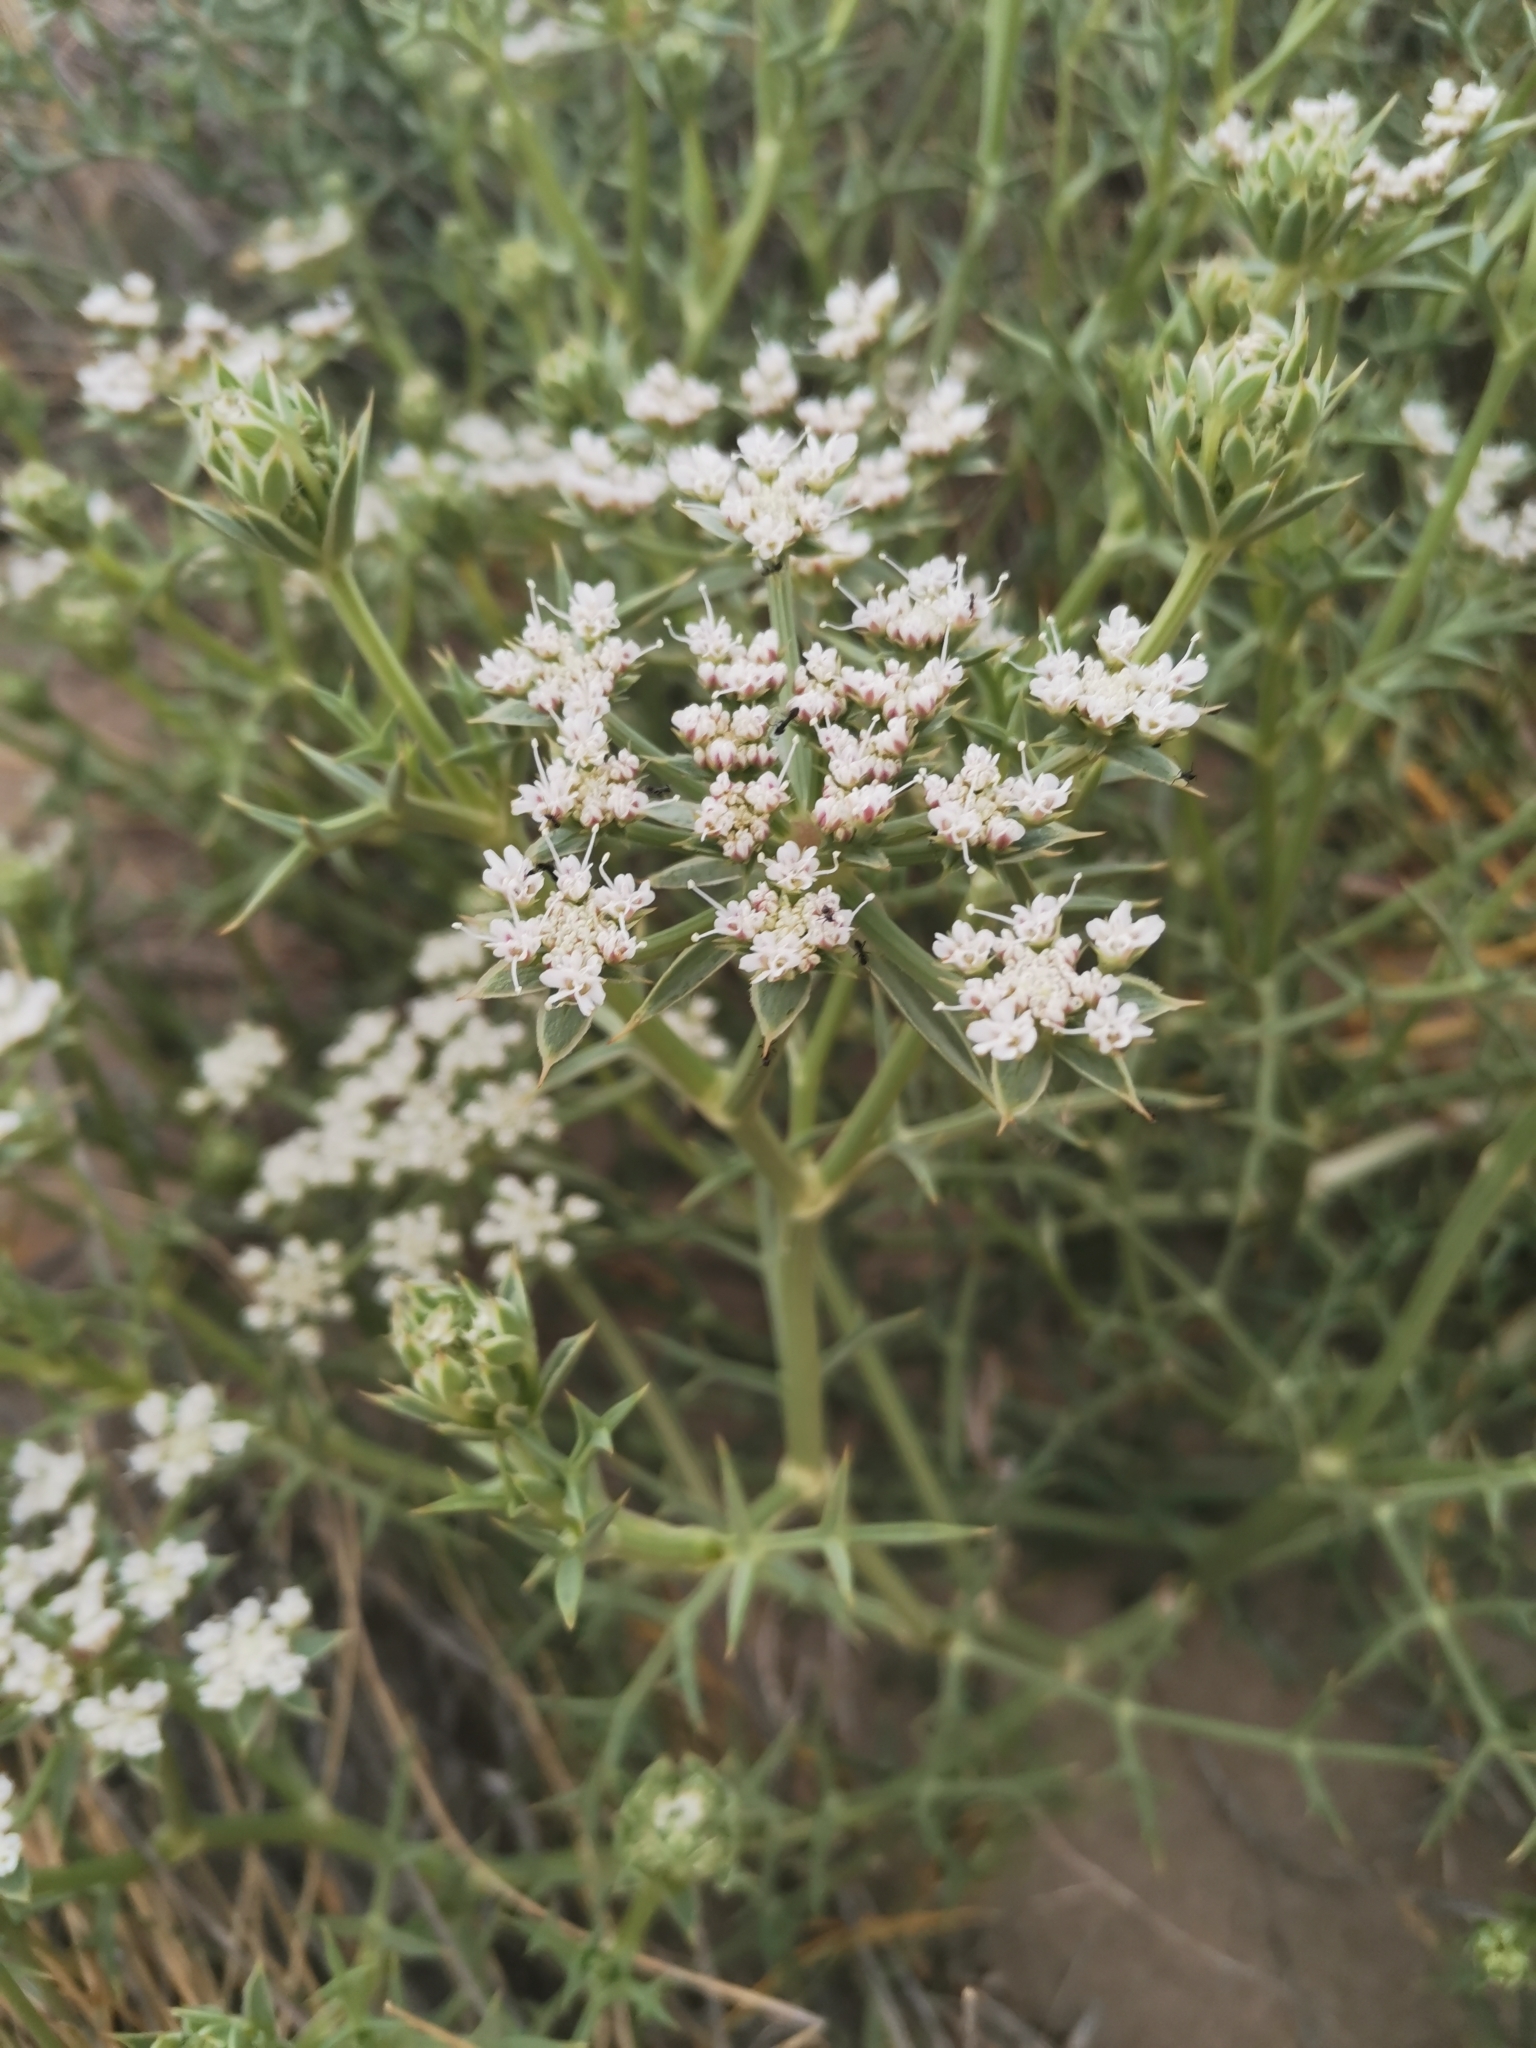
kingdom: Plantae
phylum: Tracheophyta
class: Magnoliopsida
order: Apiales
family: Apiaceae
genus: Echinophora
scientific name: Echinophora spinosa
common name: Prickly samphire
